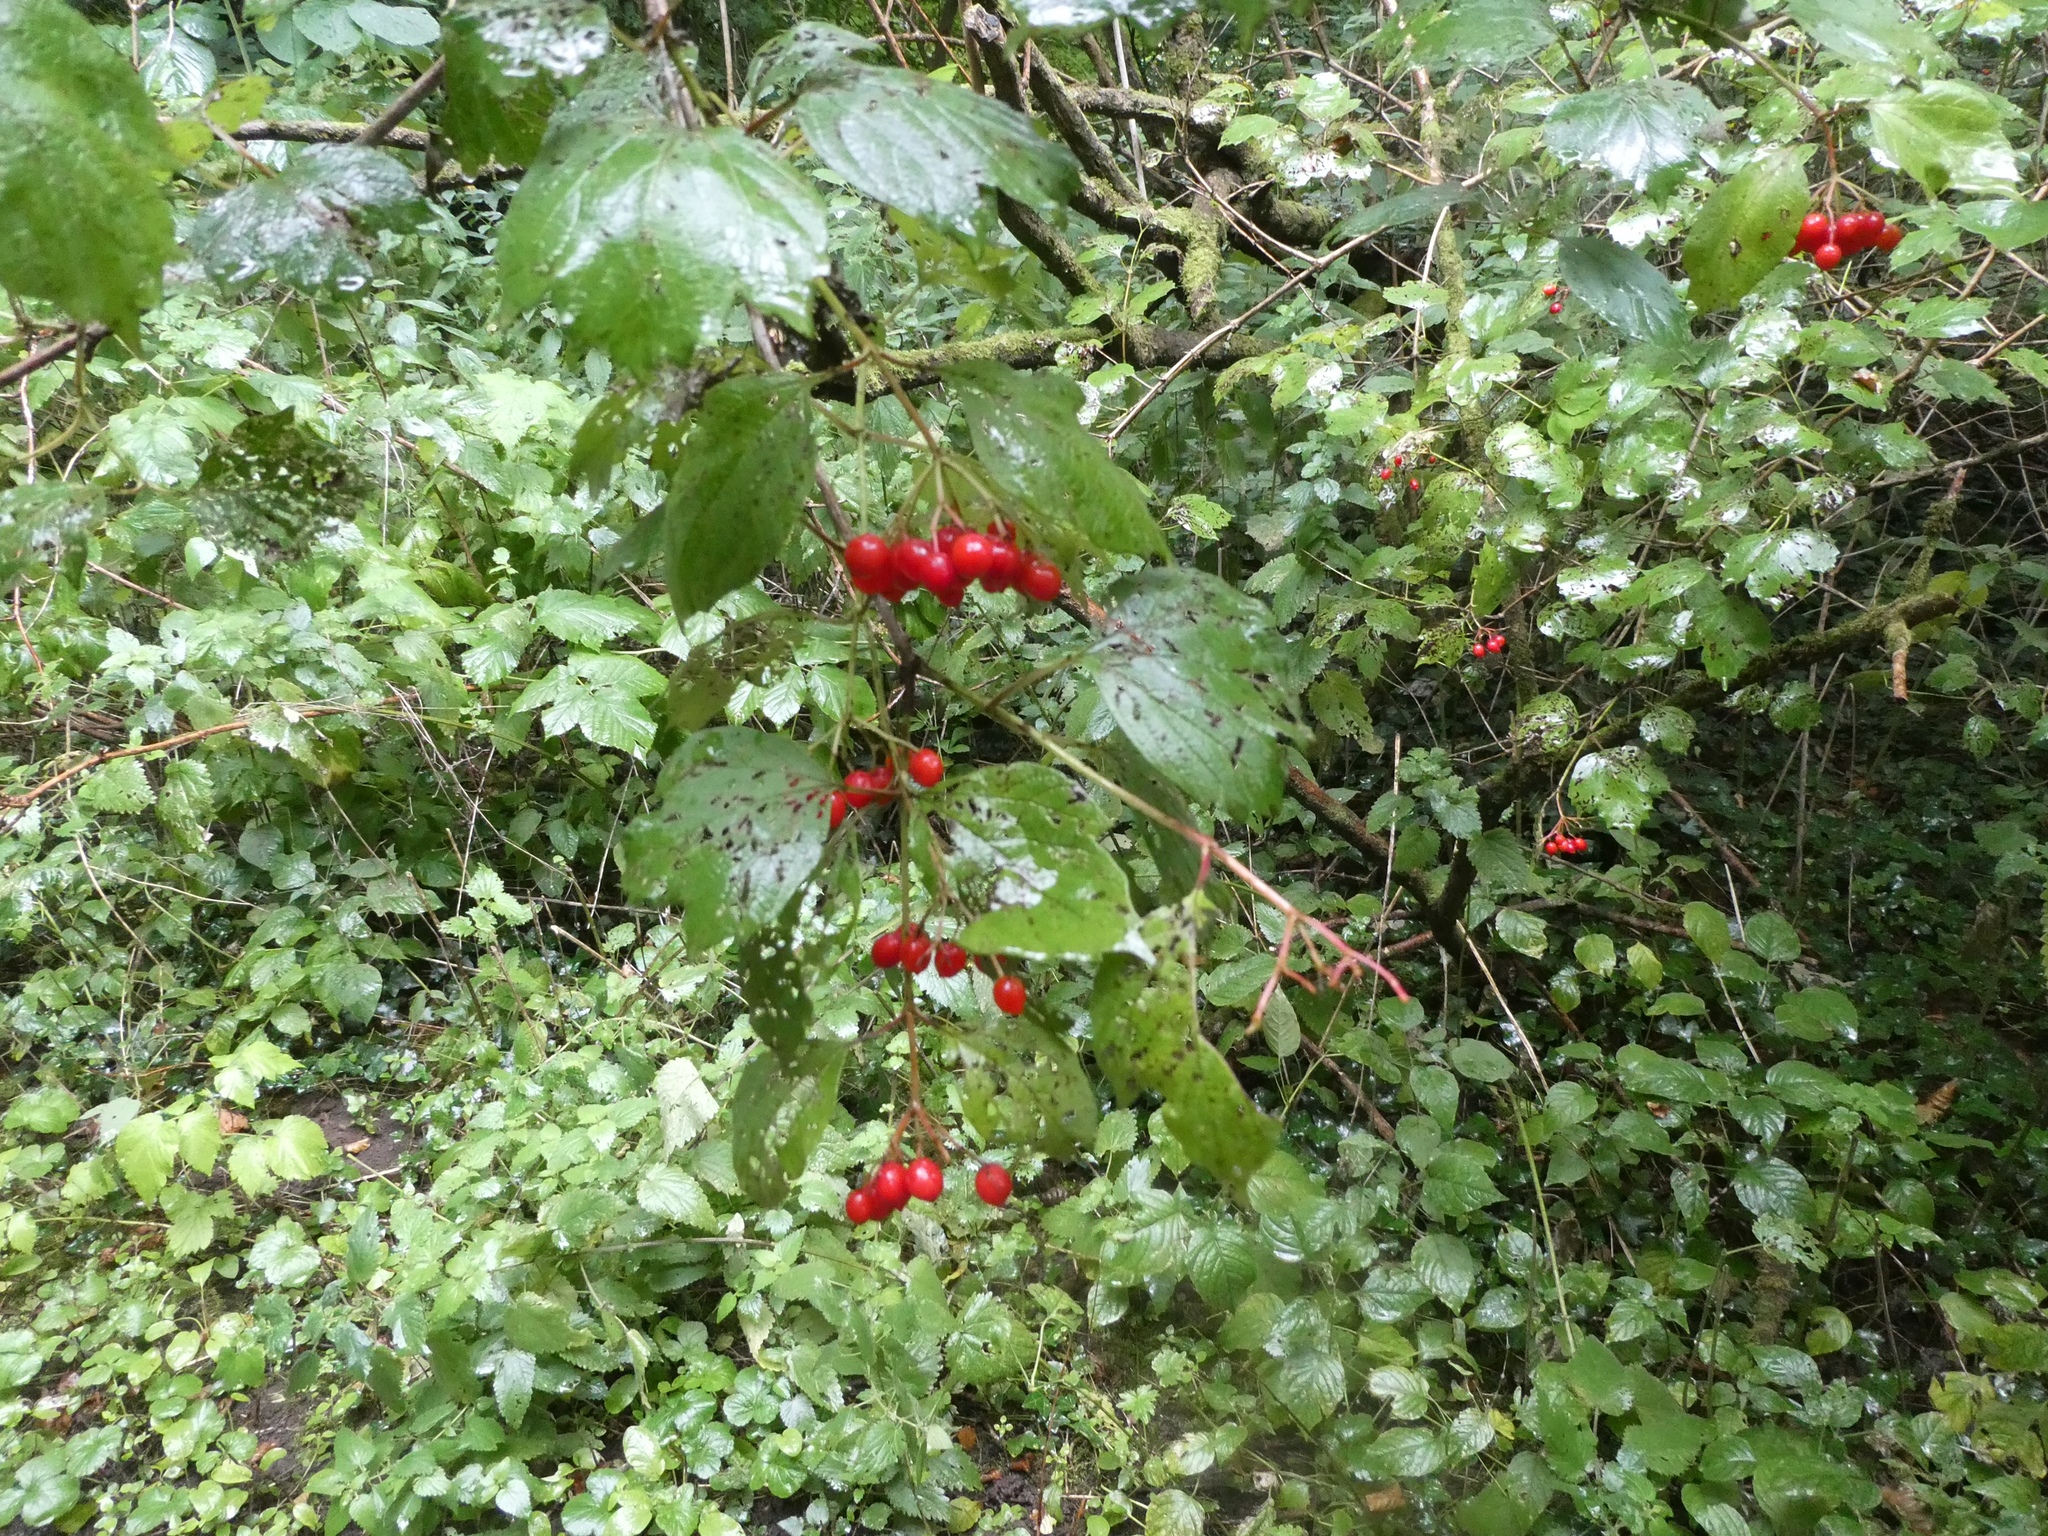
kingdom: Plantae
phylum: Tracheophyta
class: Magnoliopsida
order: Dipsacales
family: Viburnaceae
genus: Viburnum
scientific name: Viburnum opulus
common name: Guelder-rose
